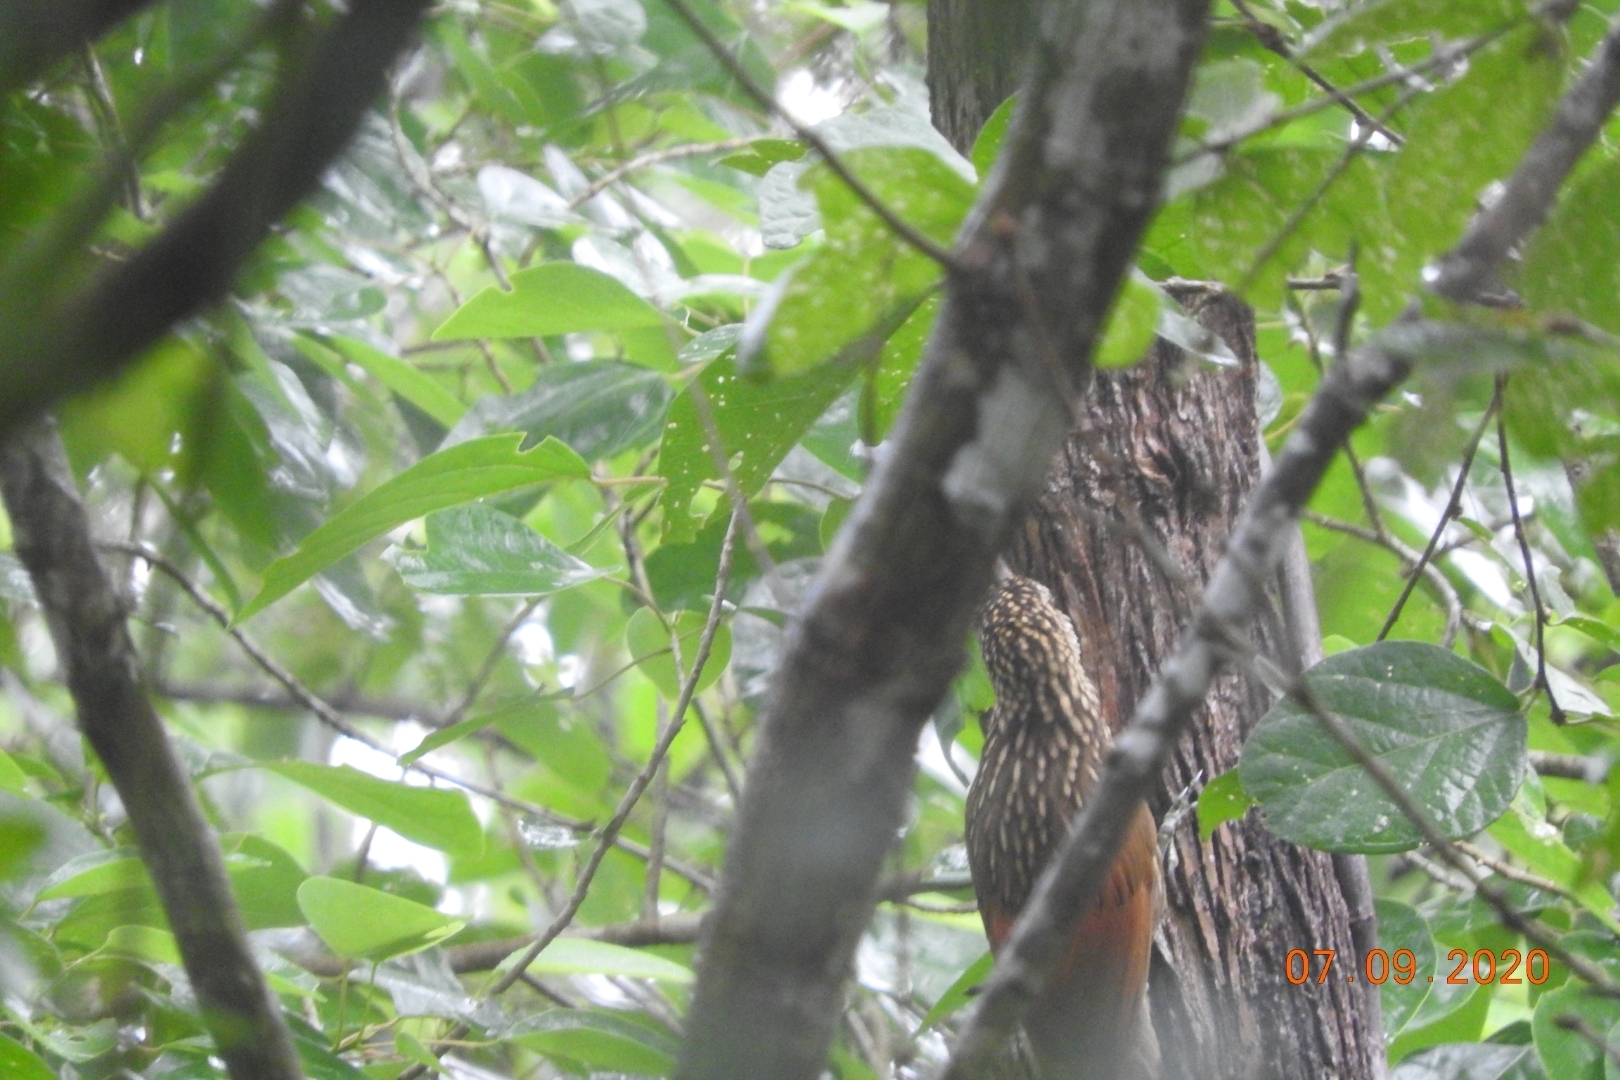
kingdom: Animalia
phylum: Chordata
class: Aves
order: Passeriformes
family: Furnariidae
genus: Xiphorhynchus
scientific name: Xiphorhynchus flavigaster
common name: Ivory-billed woodcreeper
